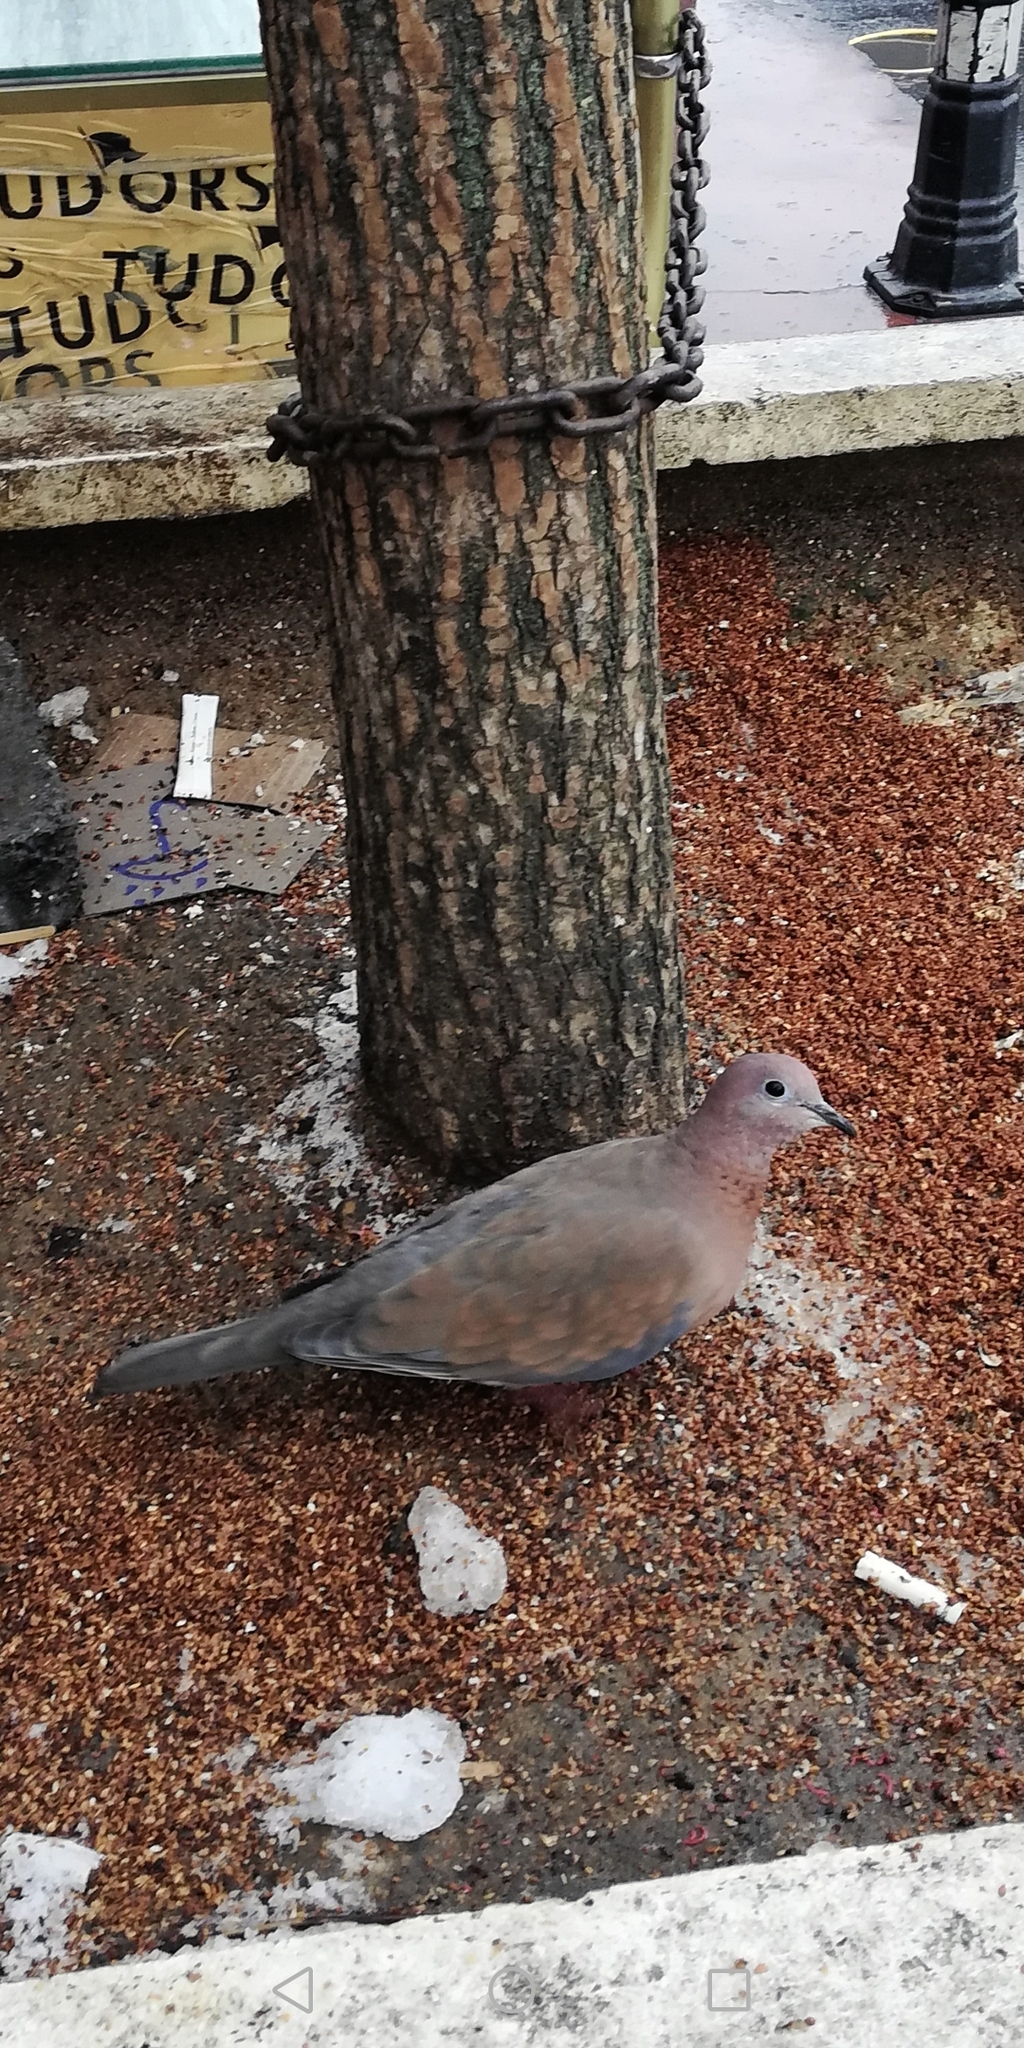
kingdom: Animalia
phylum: Chordata
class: Aves
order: Columbiformes
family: Columbidae
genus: Spilopelia
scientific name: Spilopelia senegalensis
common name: Laughing dove
